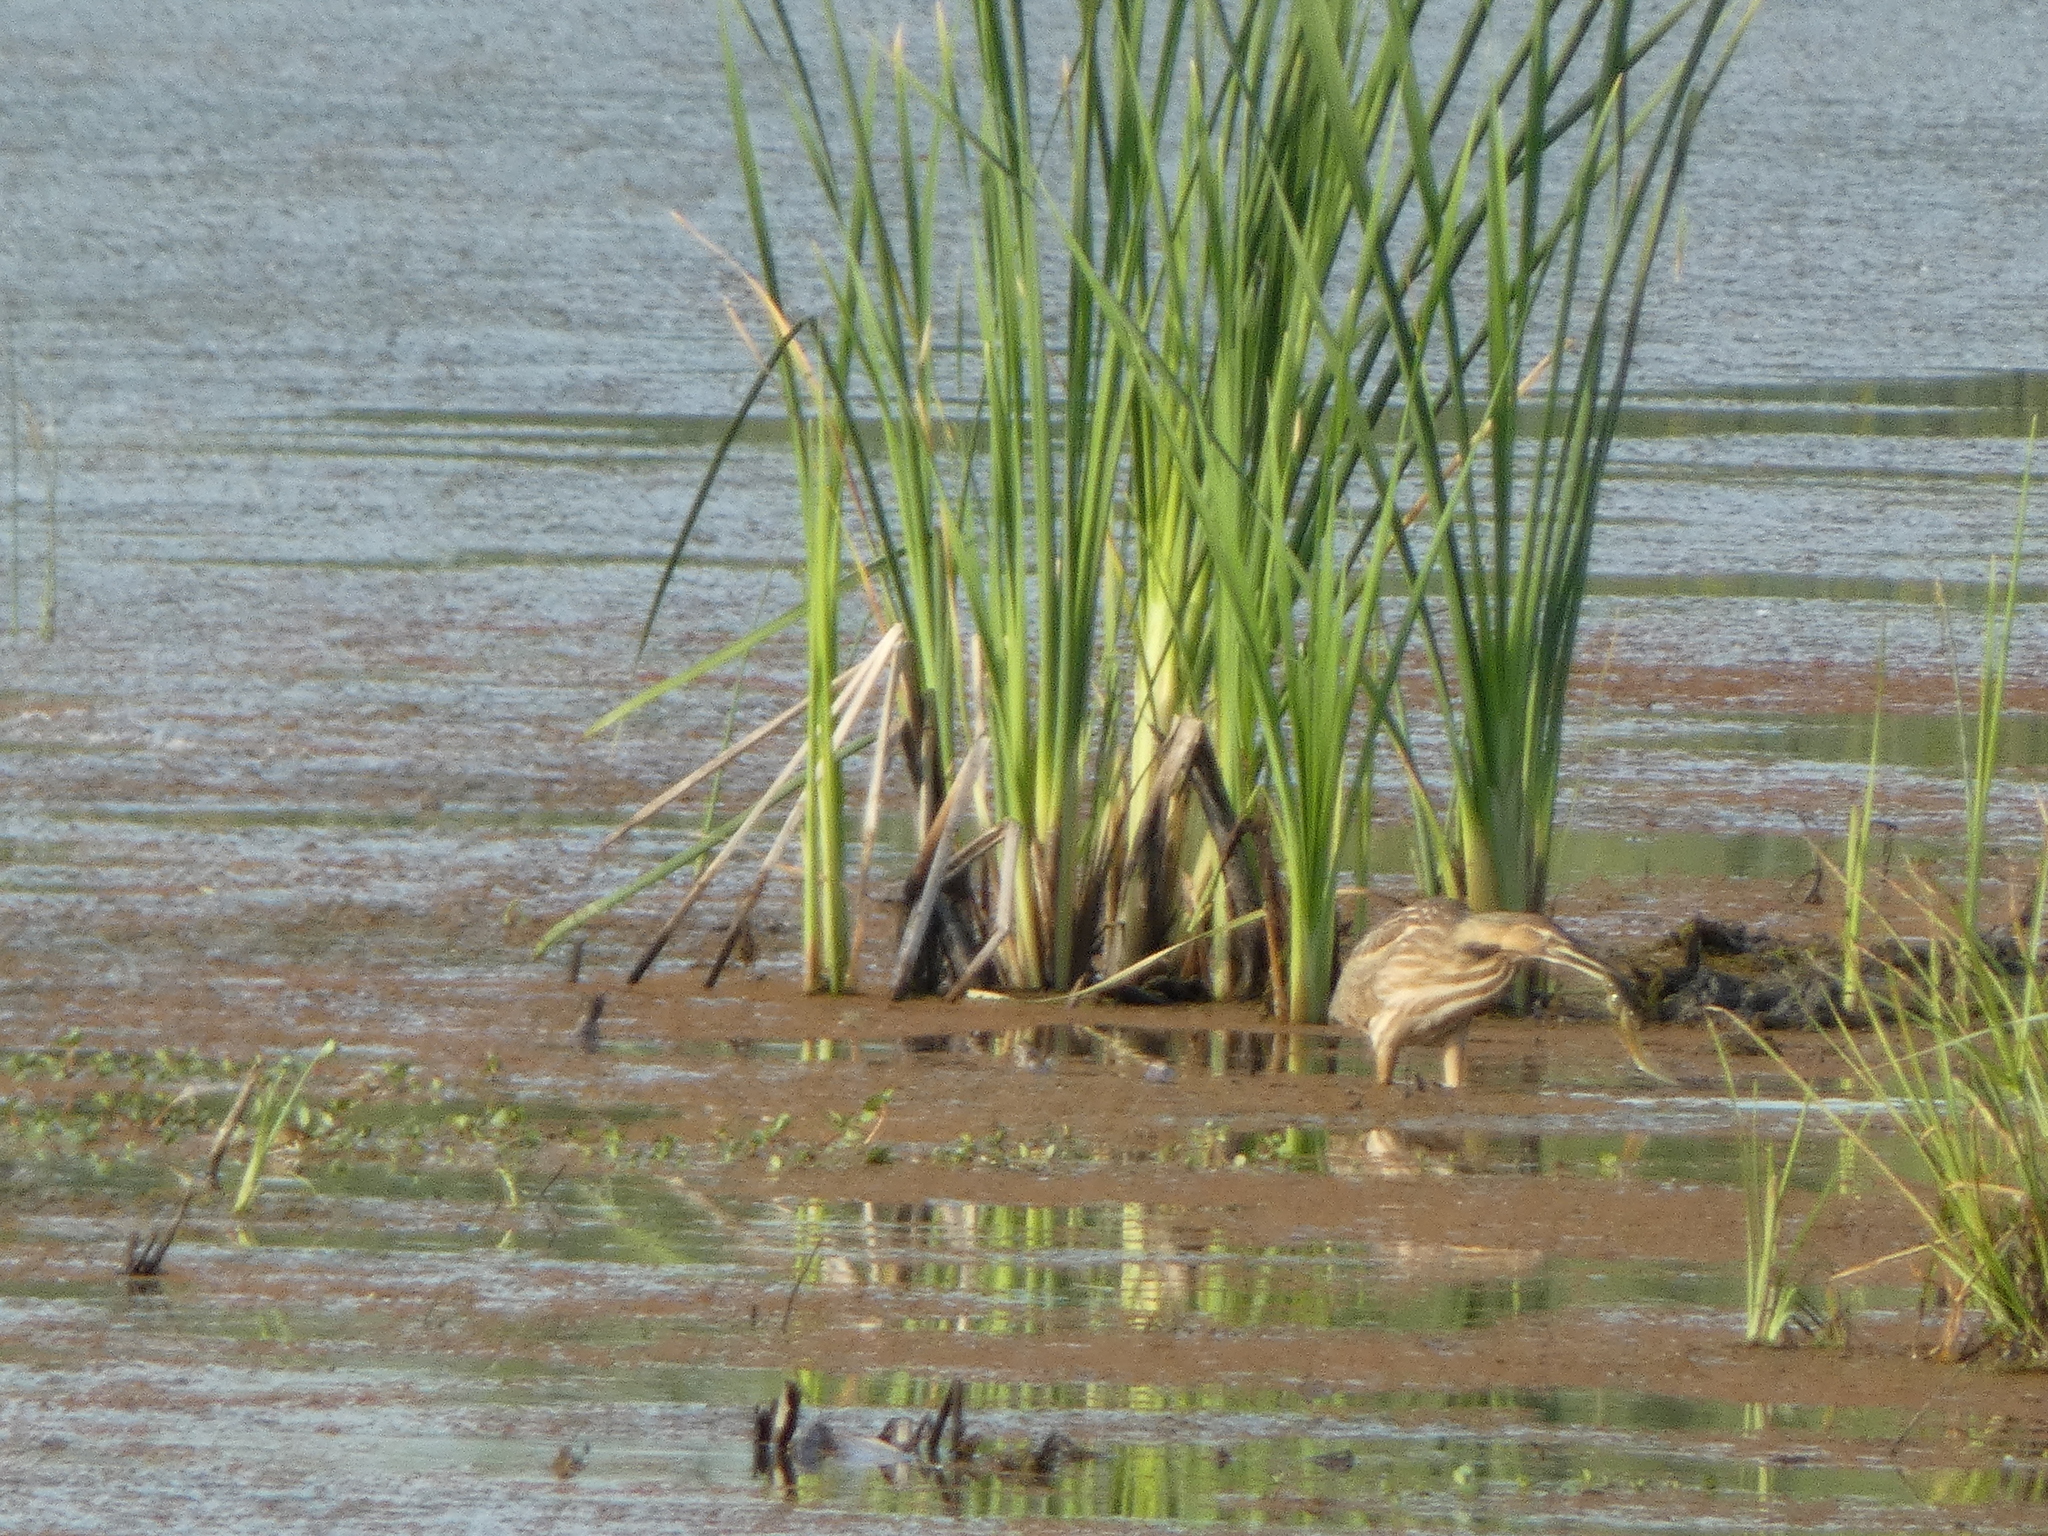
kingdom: Animalia
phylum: Chordata
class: Aves
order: Pelecaniformes
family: Ardeidae
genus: Botaurus
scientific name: Botaurus lentiginosus
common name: American bittern
